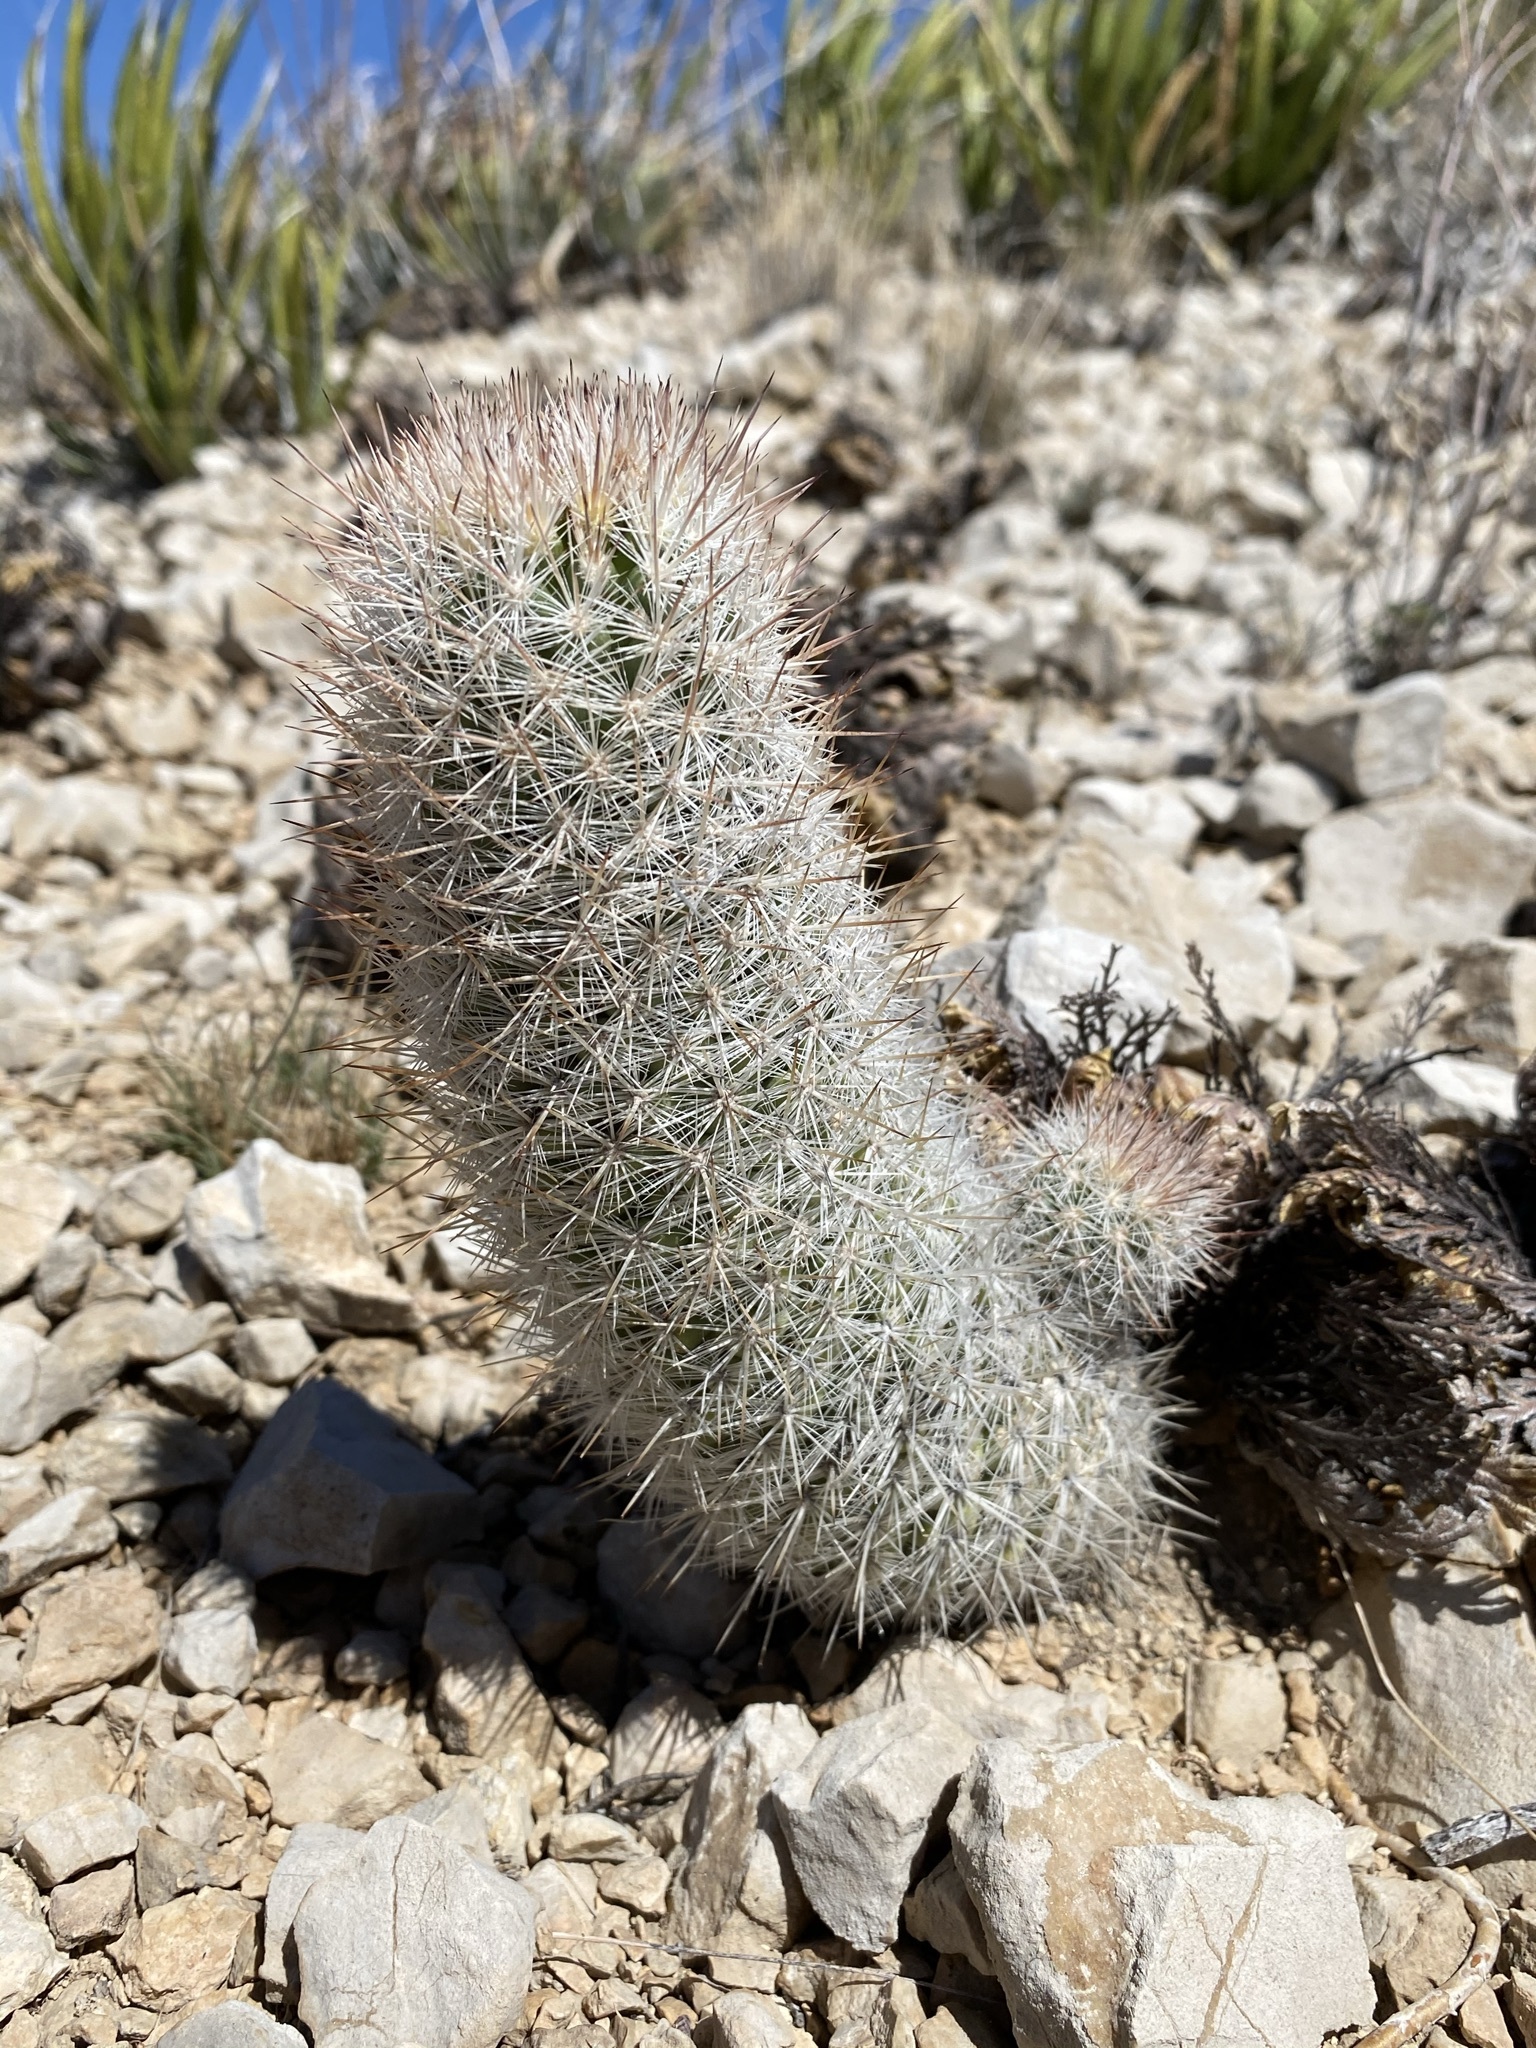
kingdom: Plantae
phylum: Tracheophyta
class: Magnoliopsida
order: Caryophyllales
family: Cactaceae
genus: Pelecyphora
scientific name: Pelecyphora sneedii
